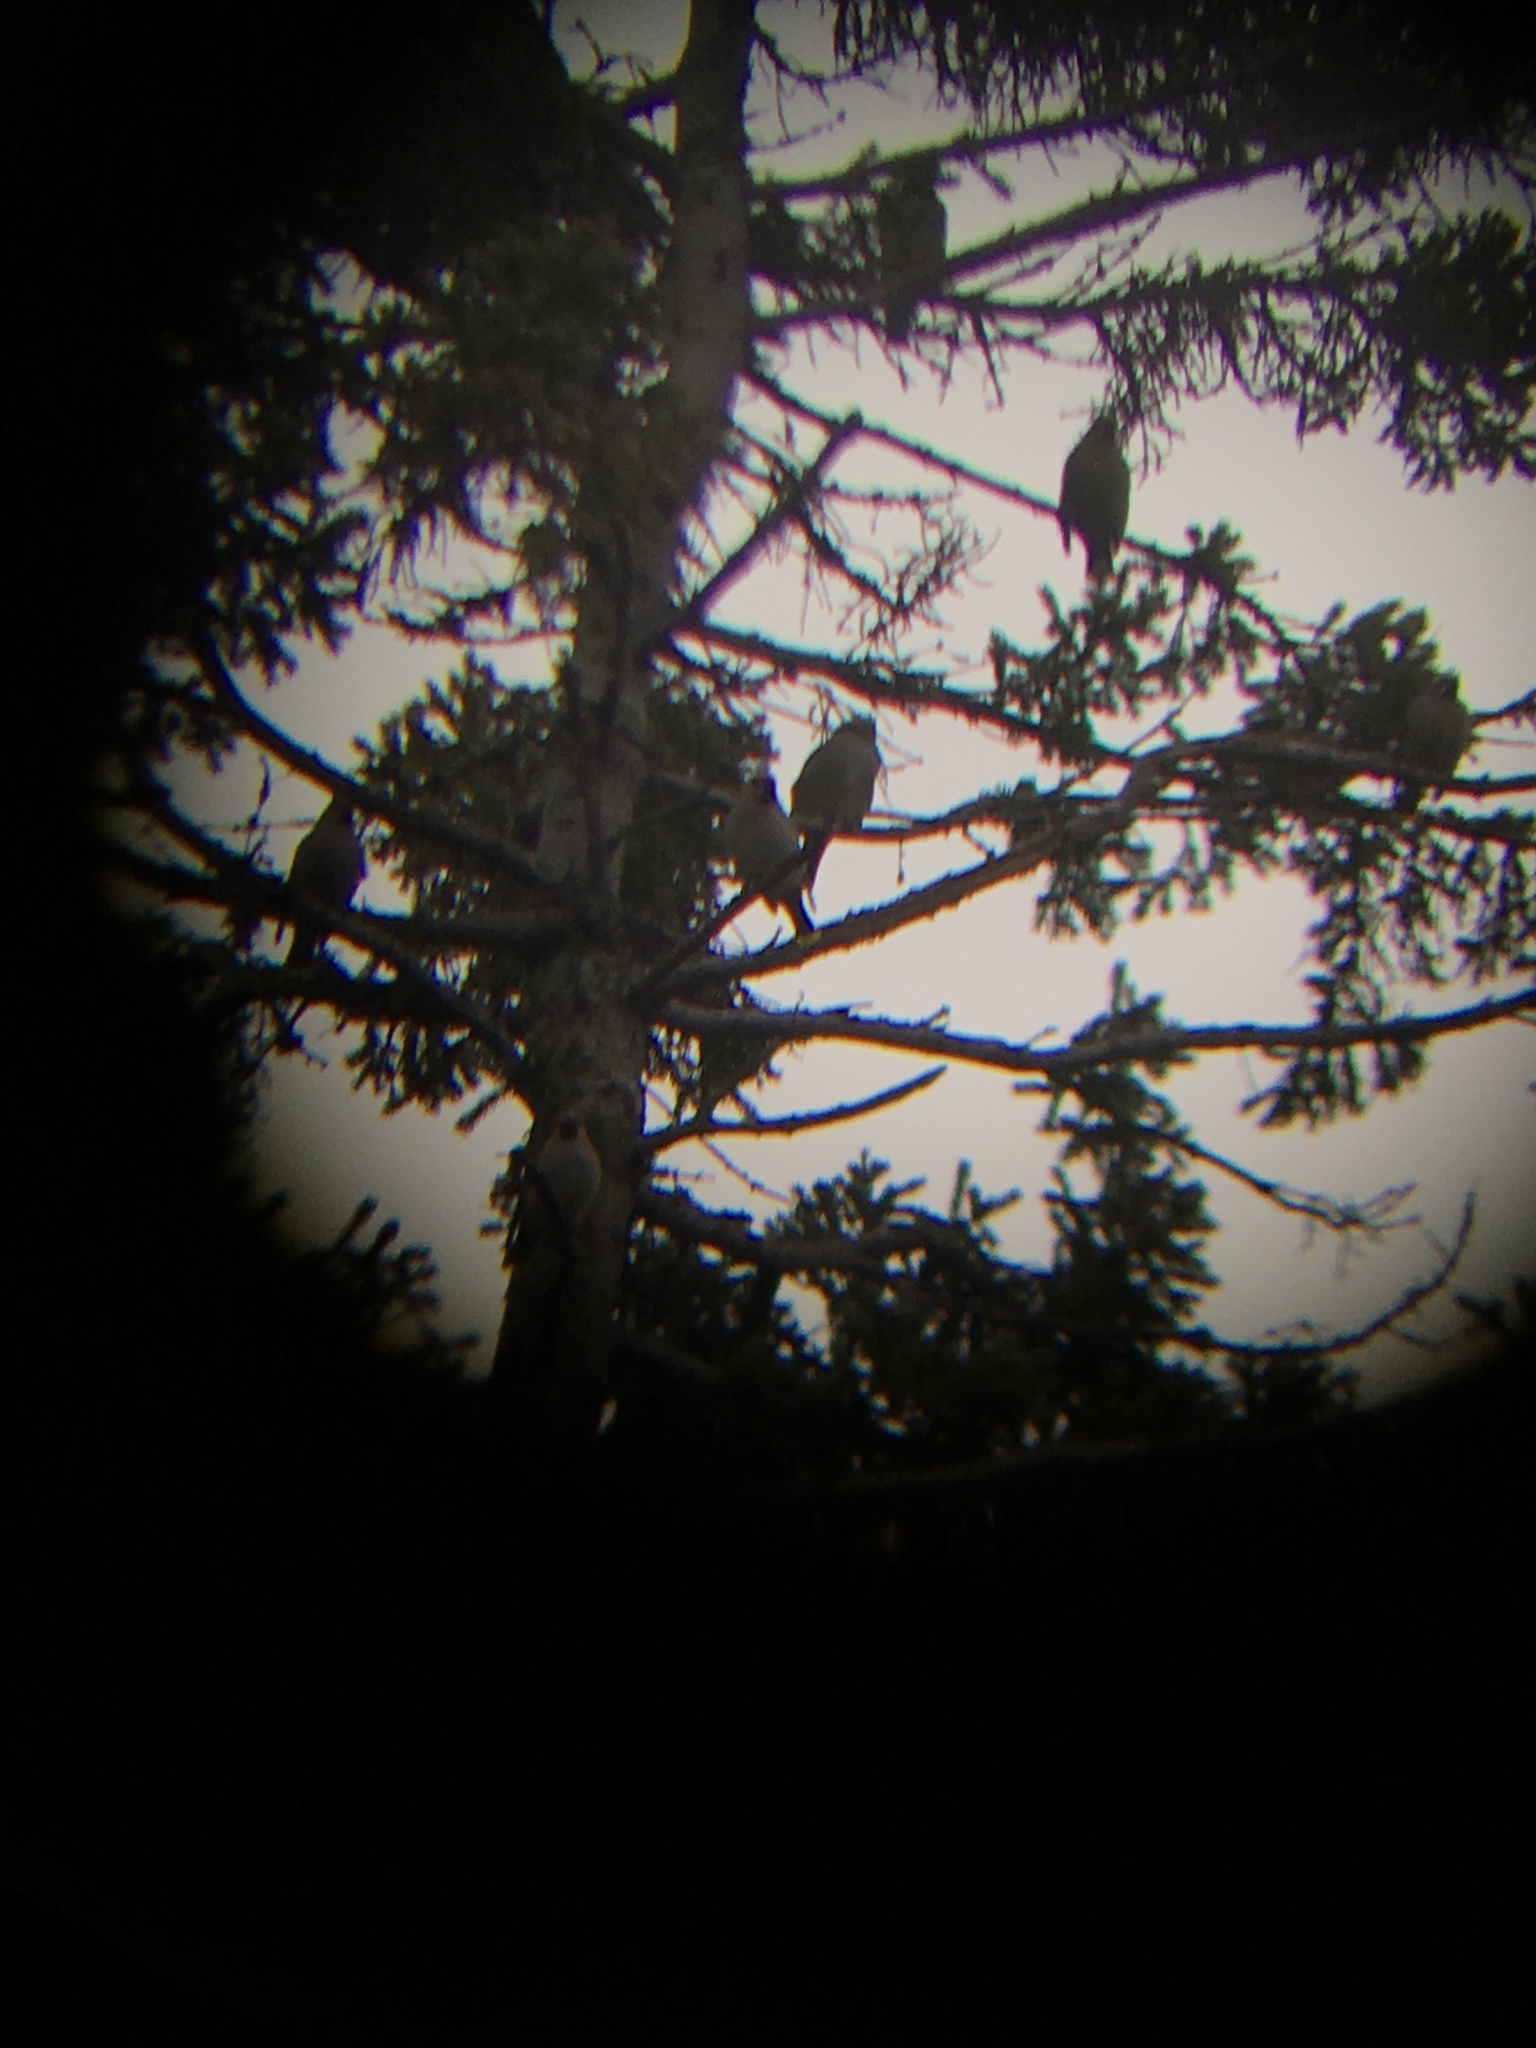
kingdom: Animalia
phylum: Chordata
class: Aves
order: Passeriformes
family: Bombycillidae
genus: Bombycilla
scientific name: Bombycilla garrulus
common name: Bohemian waxwing
